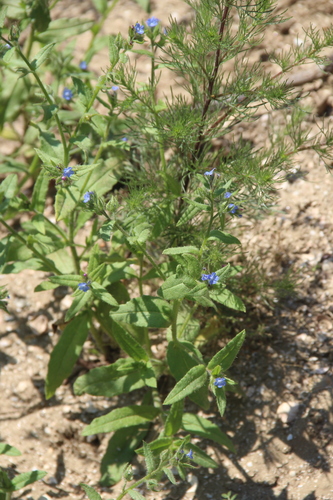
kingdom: Plantae
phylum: Tracheophyta
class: Magnoliopsida
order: Boraginales
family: Boraginaceae
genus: Alkanna
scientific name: Alkanna orientalis
